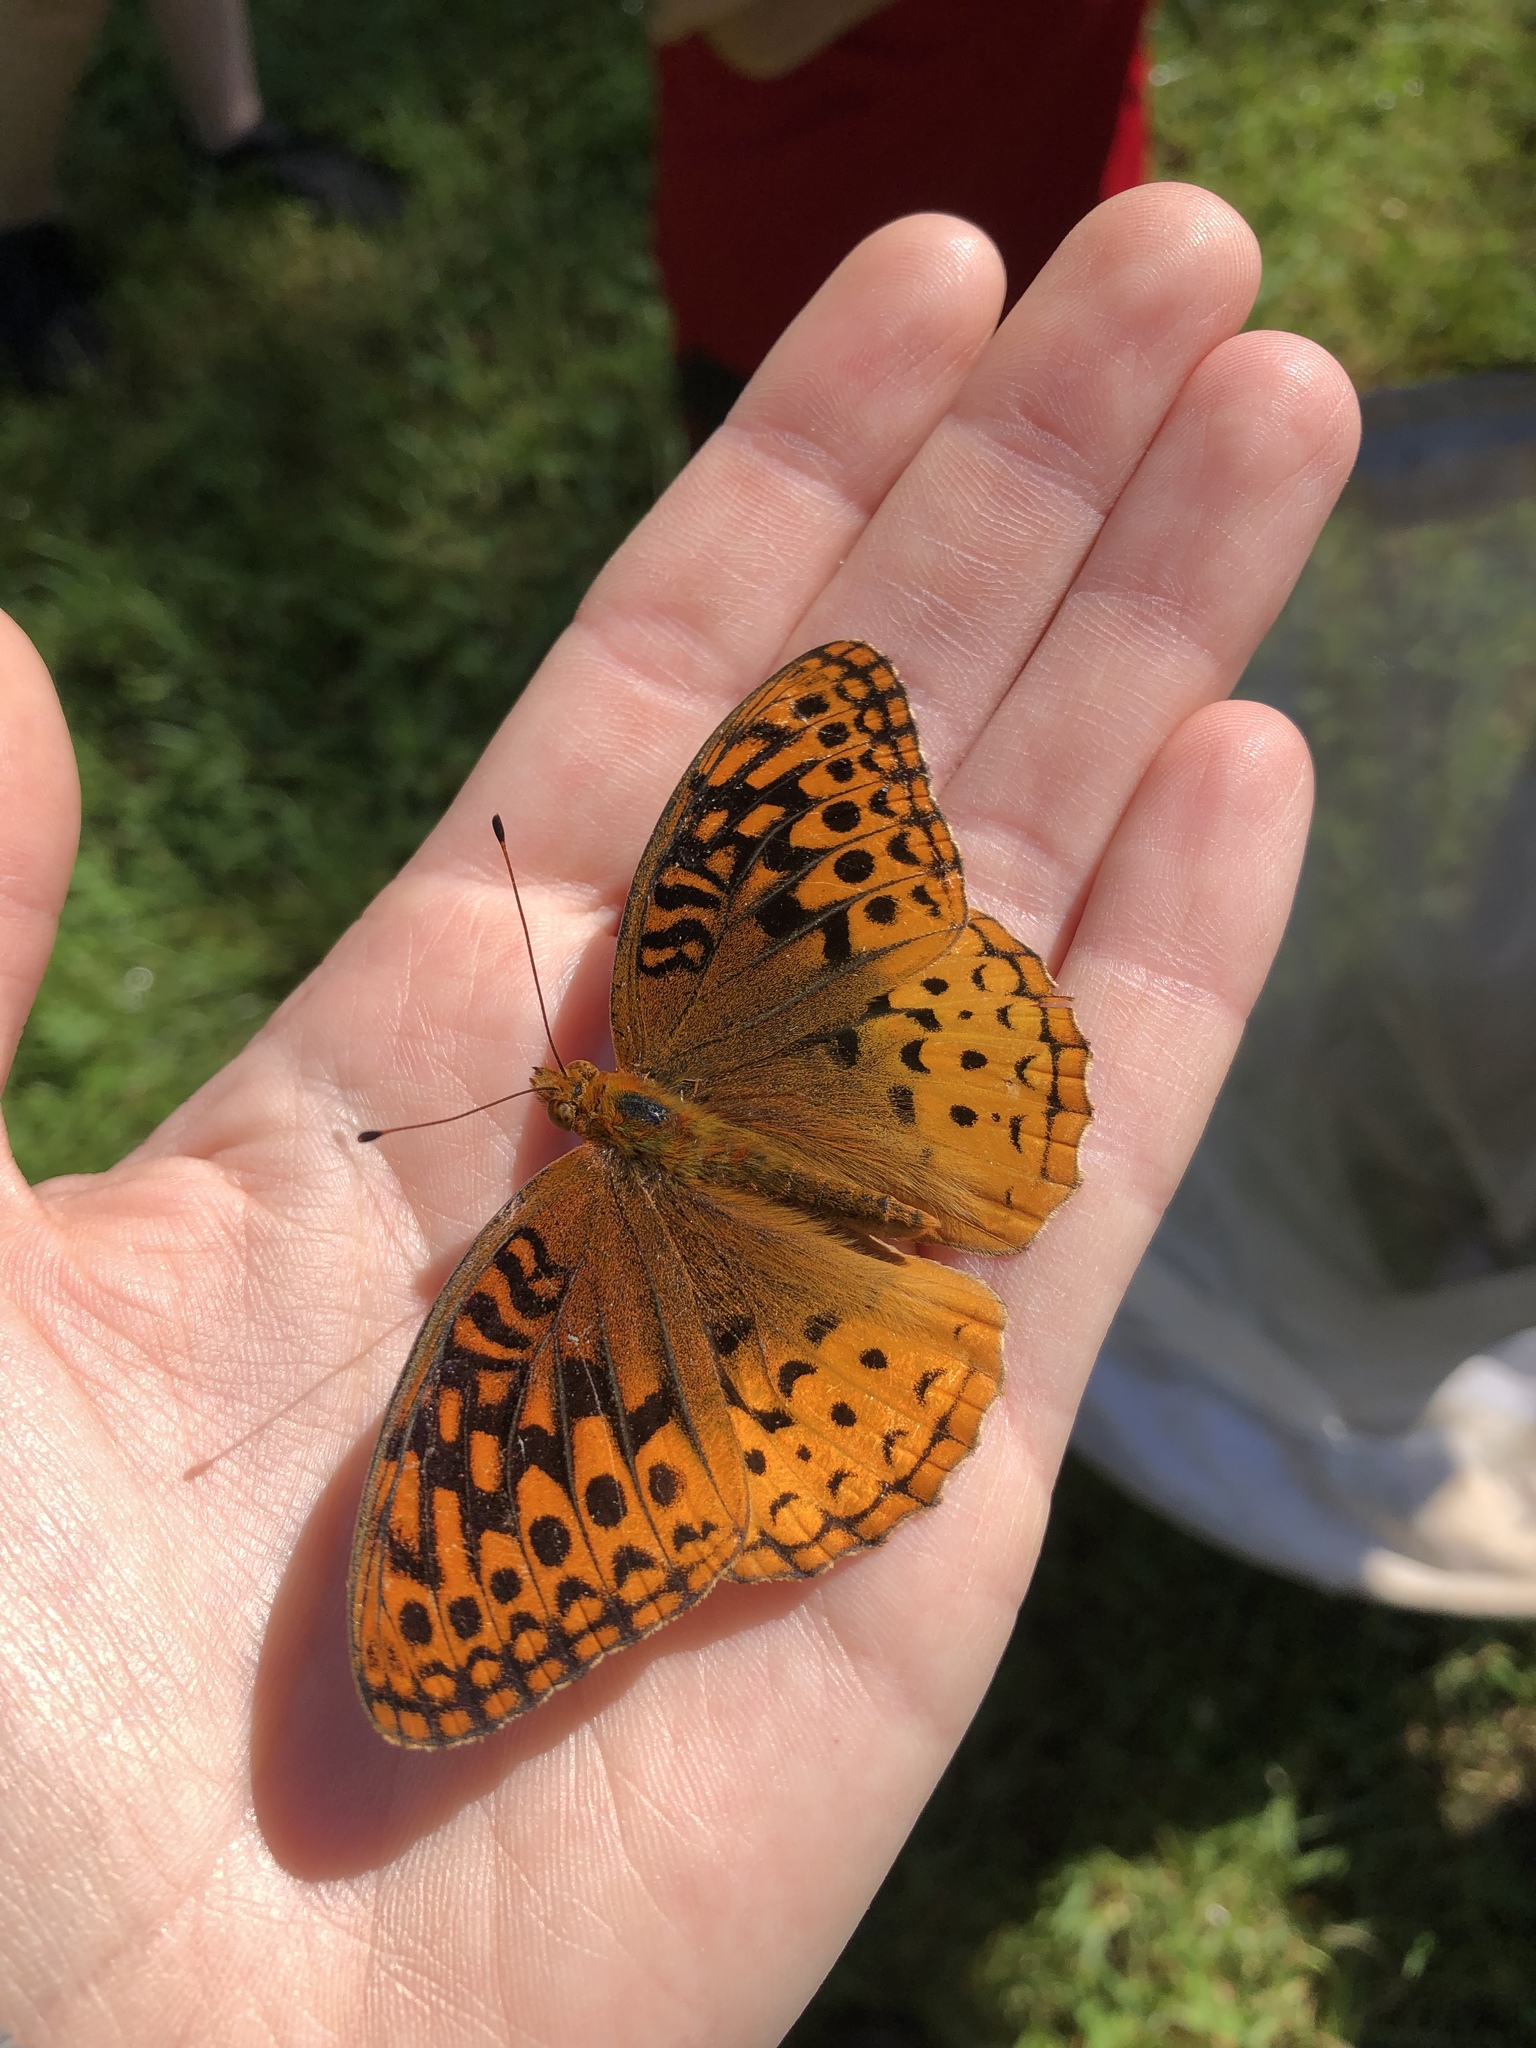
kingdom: Animalia
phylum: Arthropoda
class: Insecta
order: Lepidoptera
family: Nymphalidae
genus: Speyeria
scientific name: Speyeria cybele
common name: Great spangled fritillary
